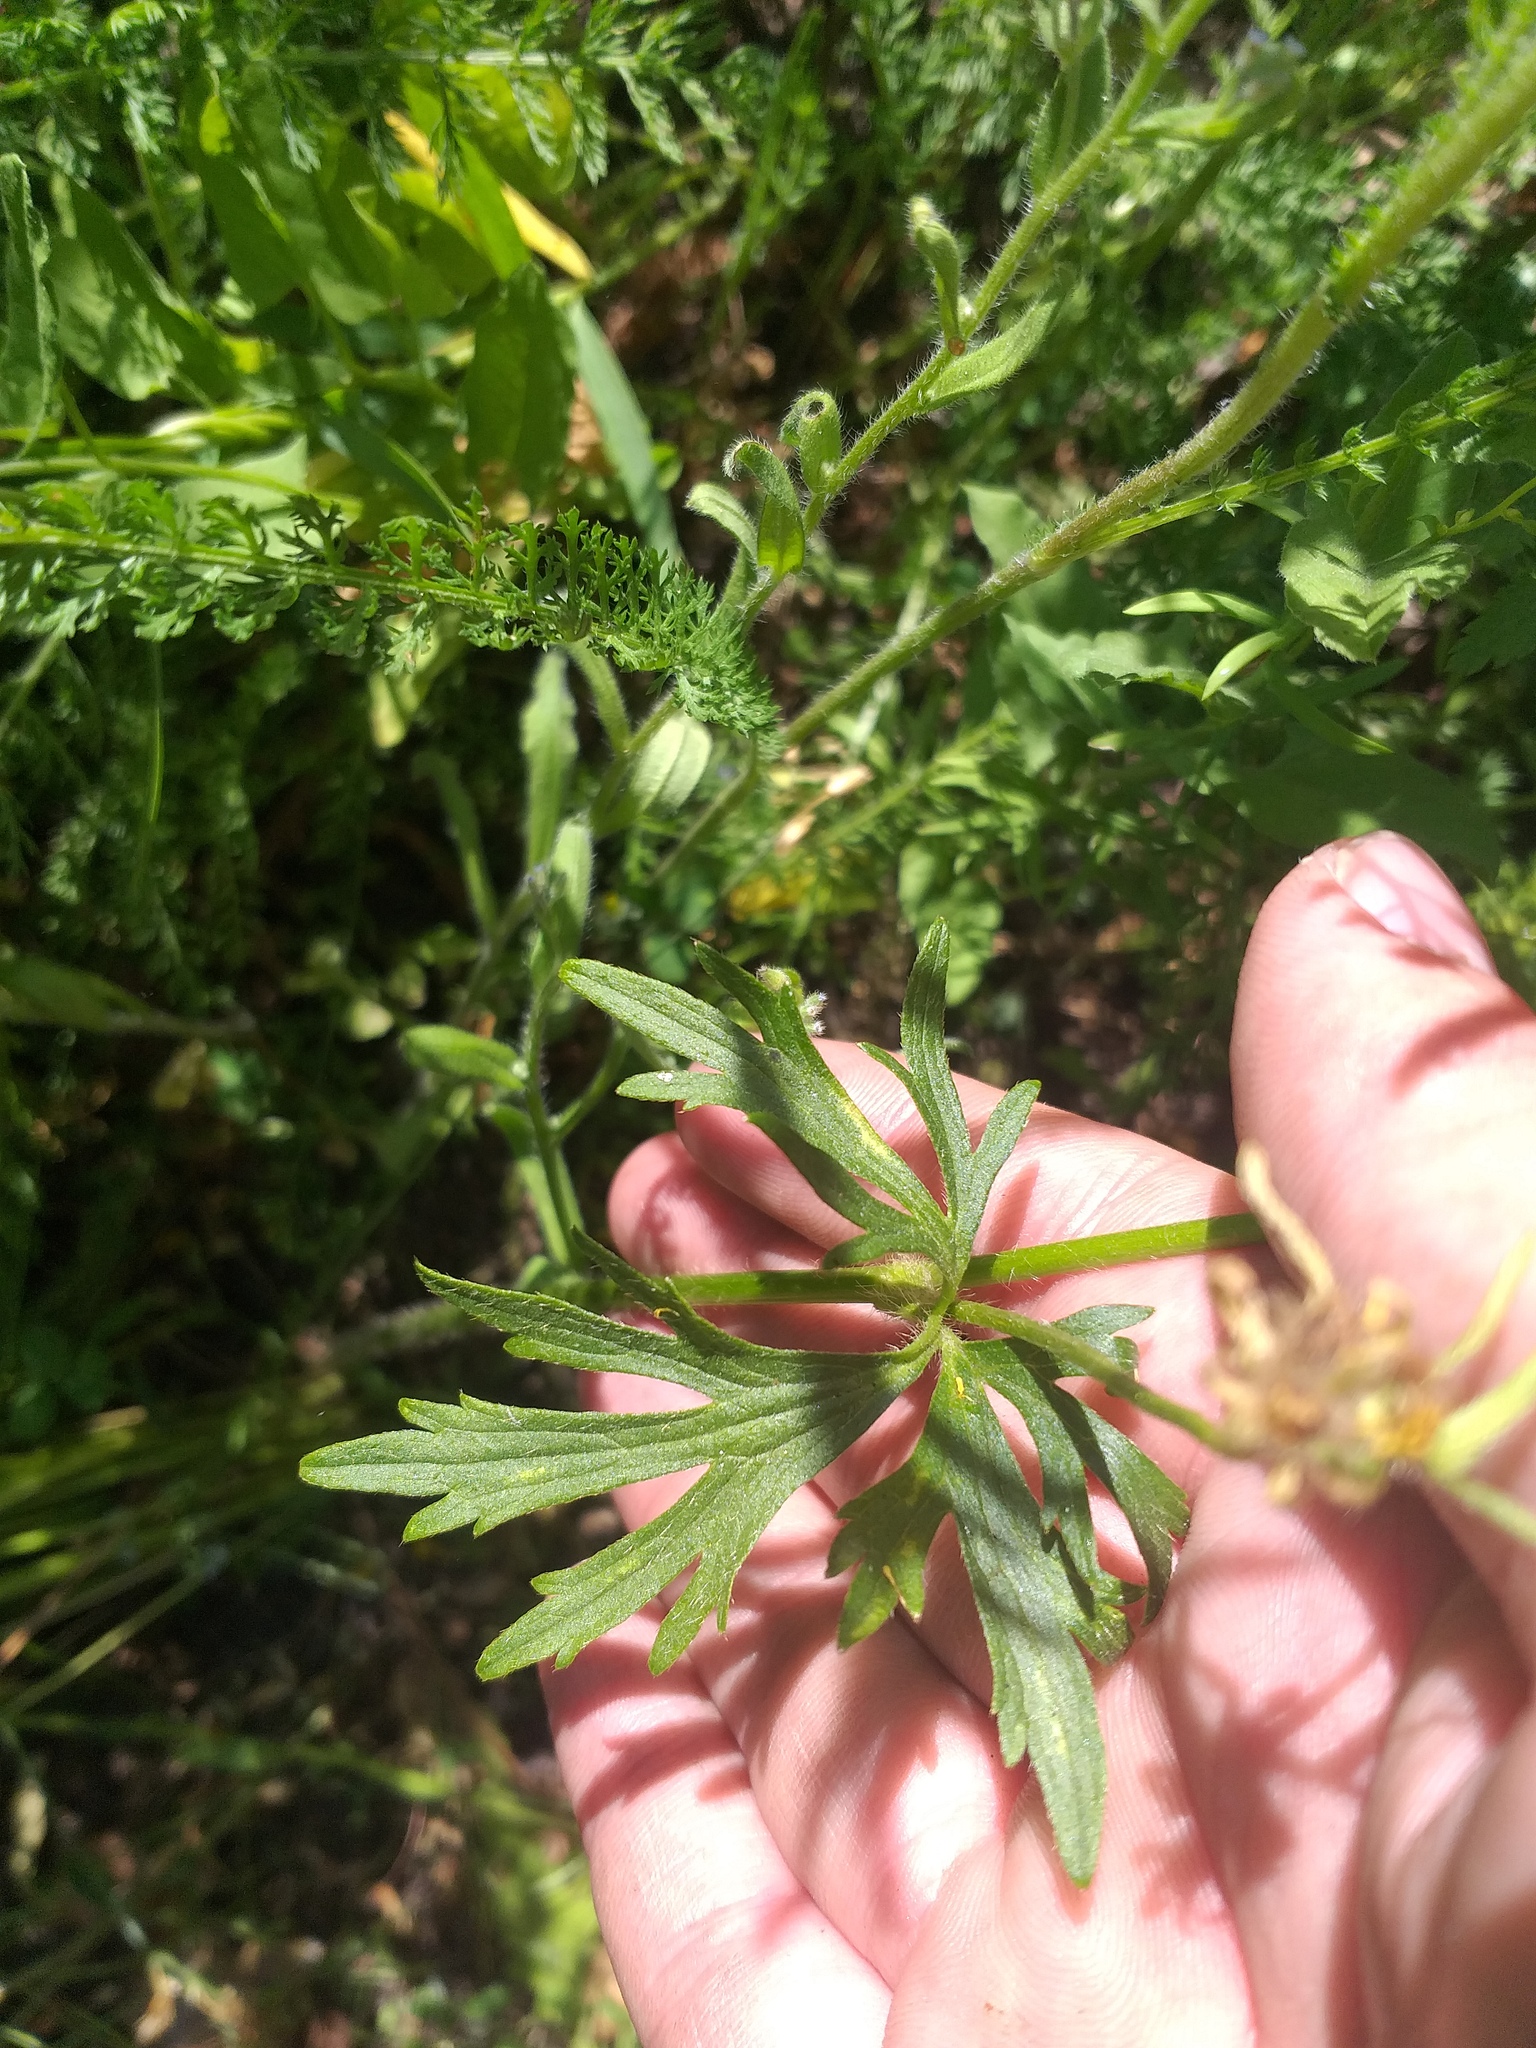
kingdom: Plantae
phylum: Tracheophyta
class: Magnoliopsida
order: Ranunculales
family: Ranunculaceae
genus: Ranunculus
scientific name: Ranunculus polyanthemos
